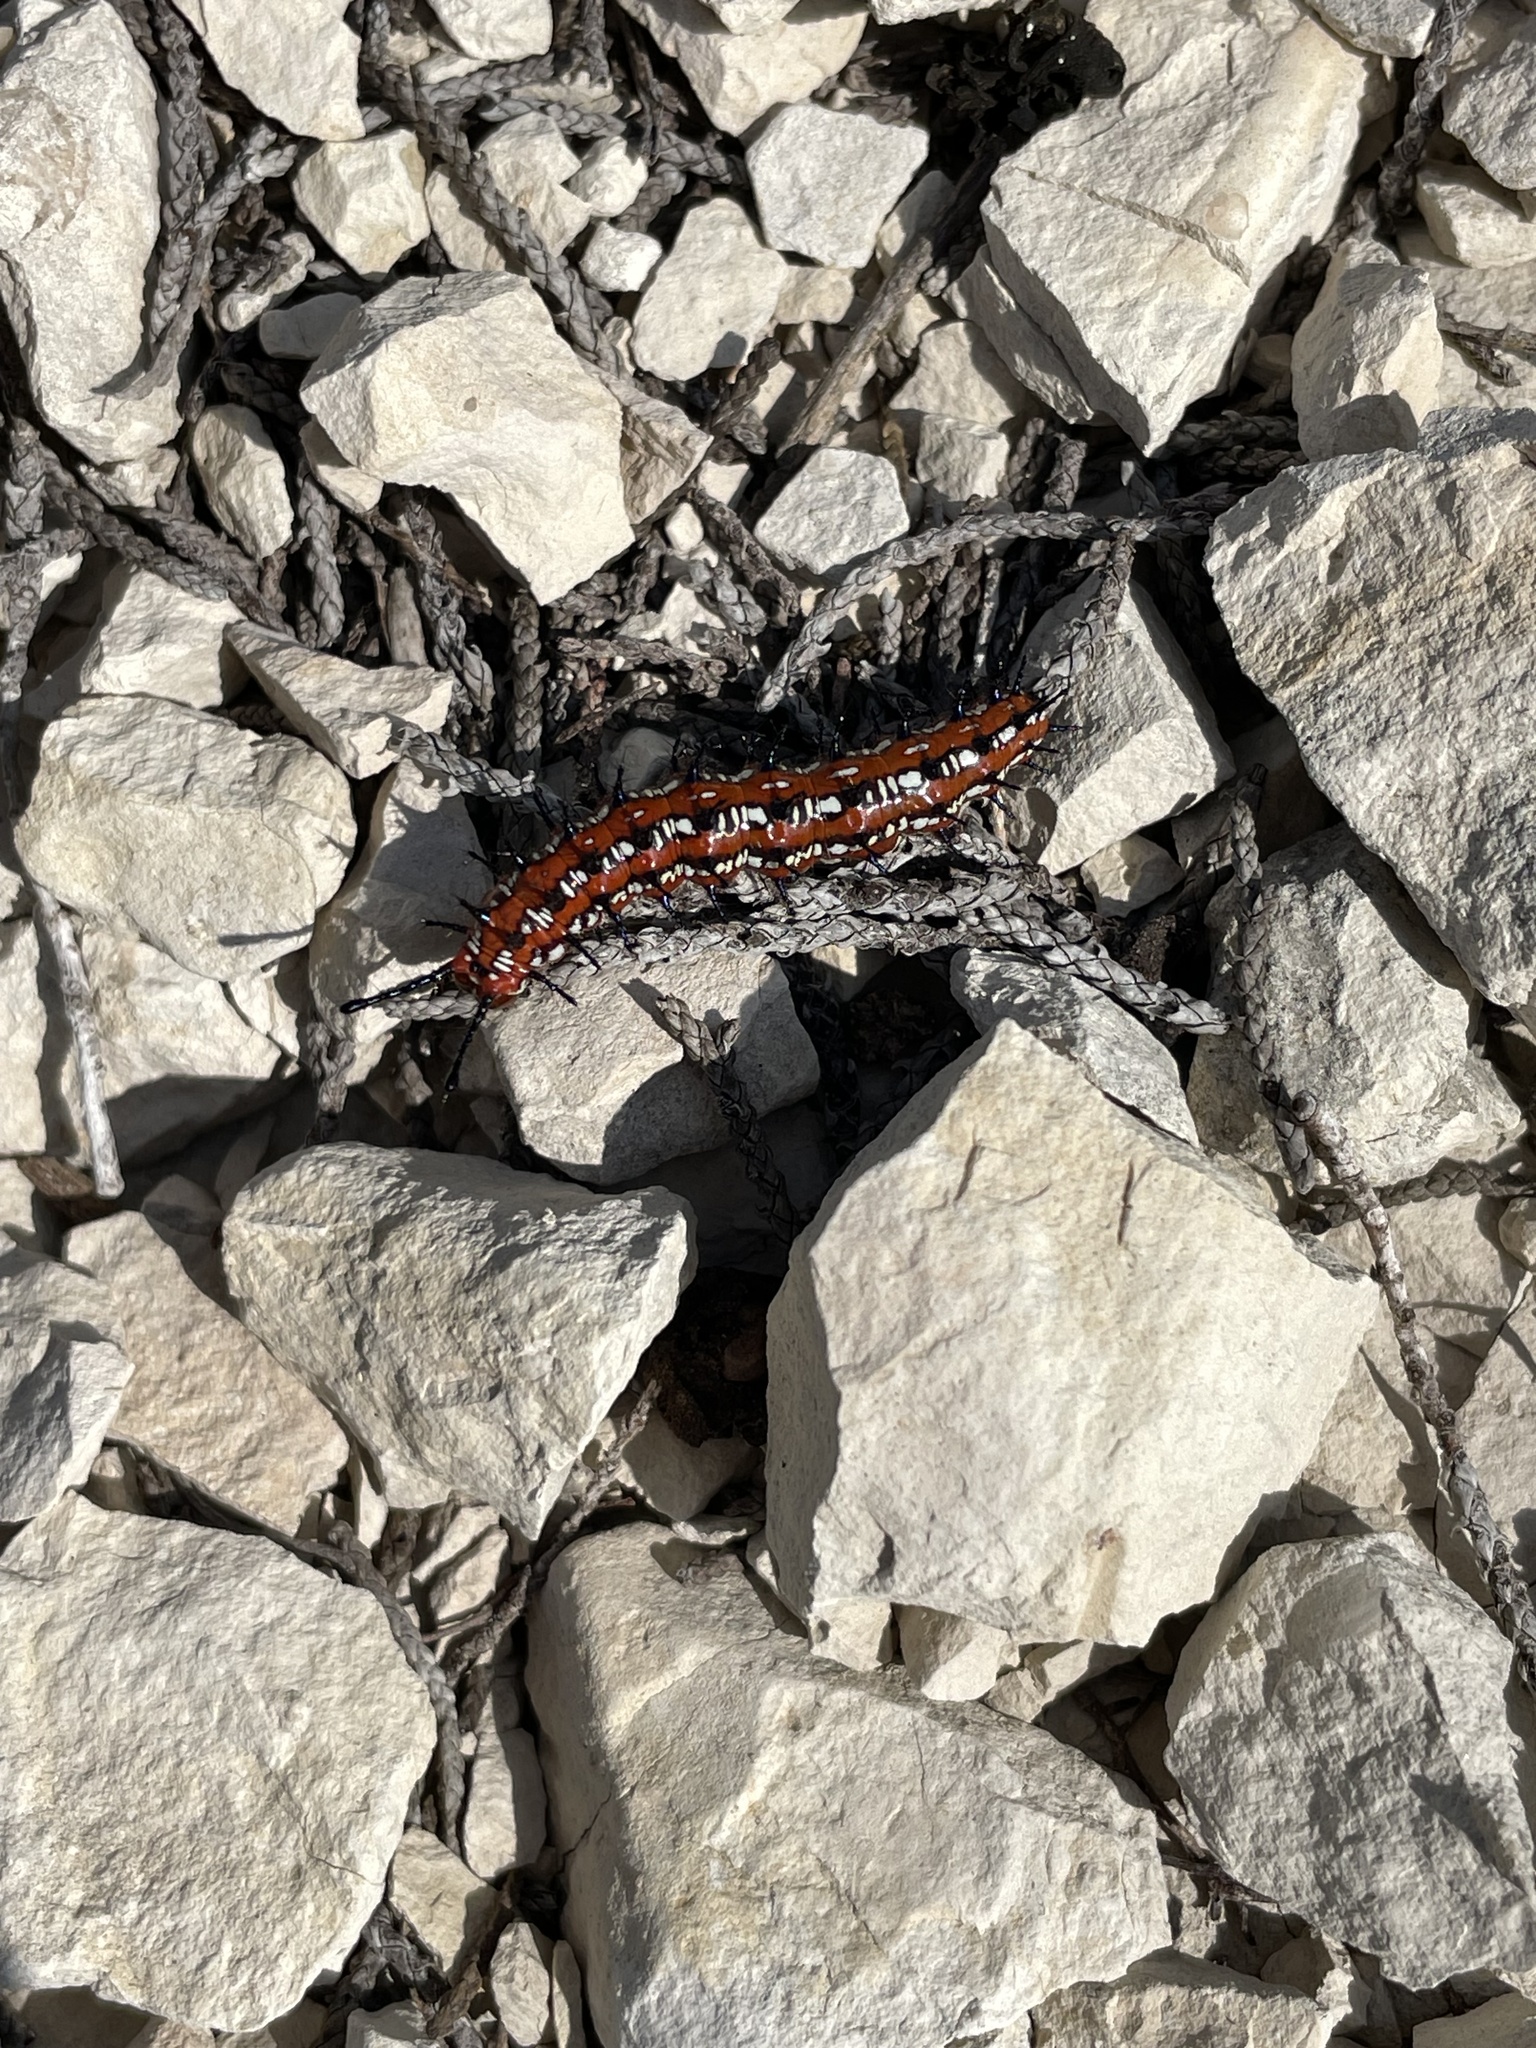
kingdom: Animalia
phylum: Arthropoda
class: Insecta
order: Lepidoptera
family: Nymphalidae
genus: Euptoieta
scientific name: Euptoieta claudia
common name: Variegated fritillary
